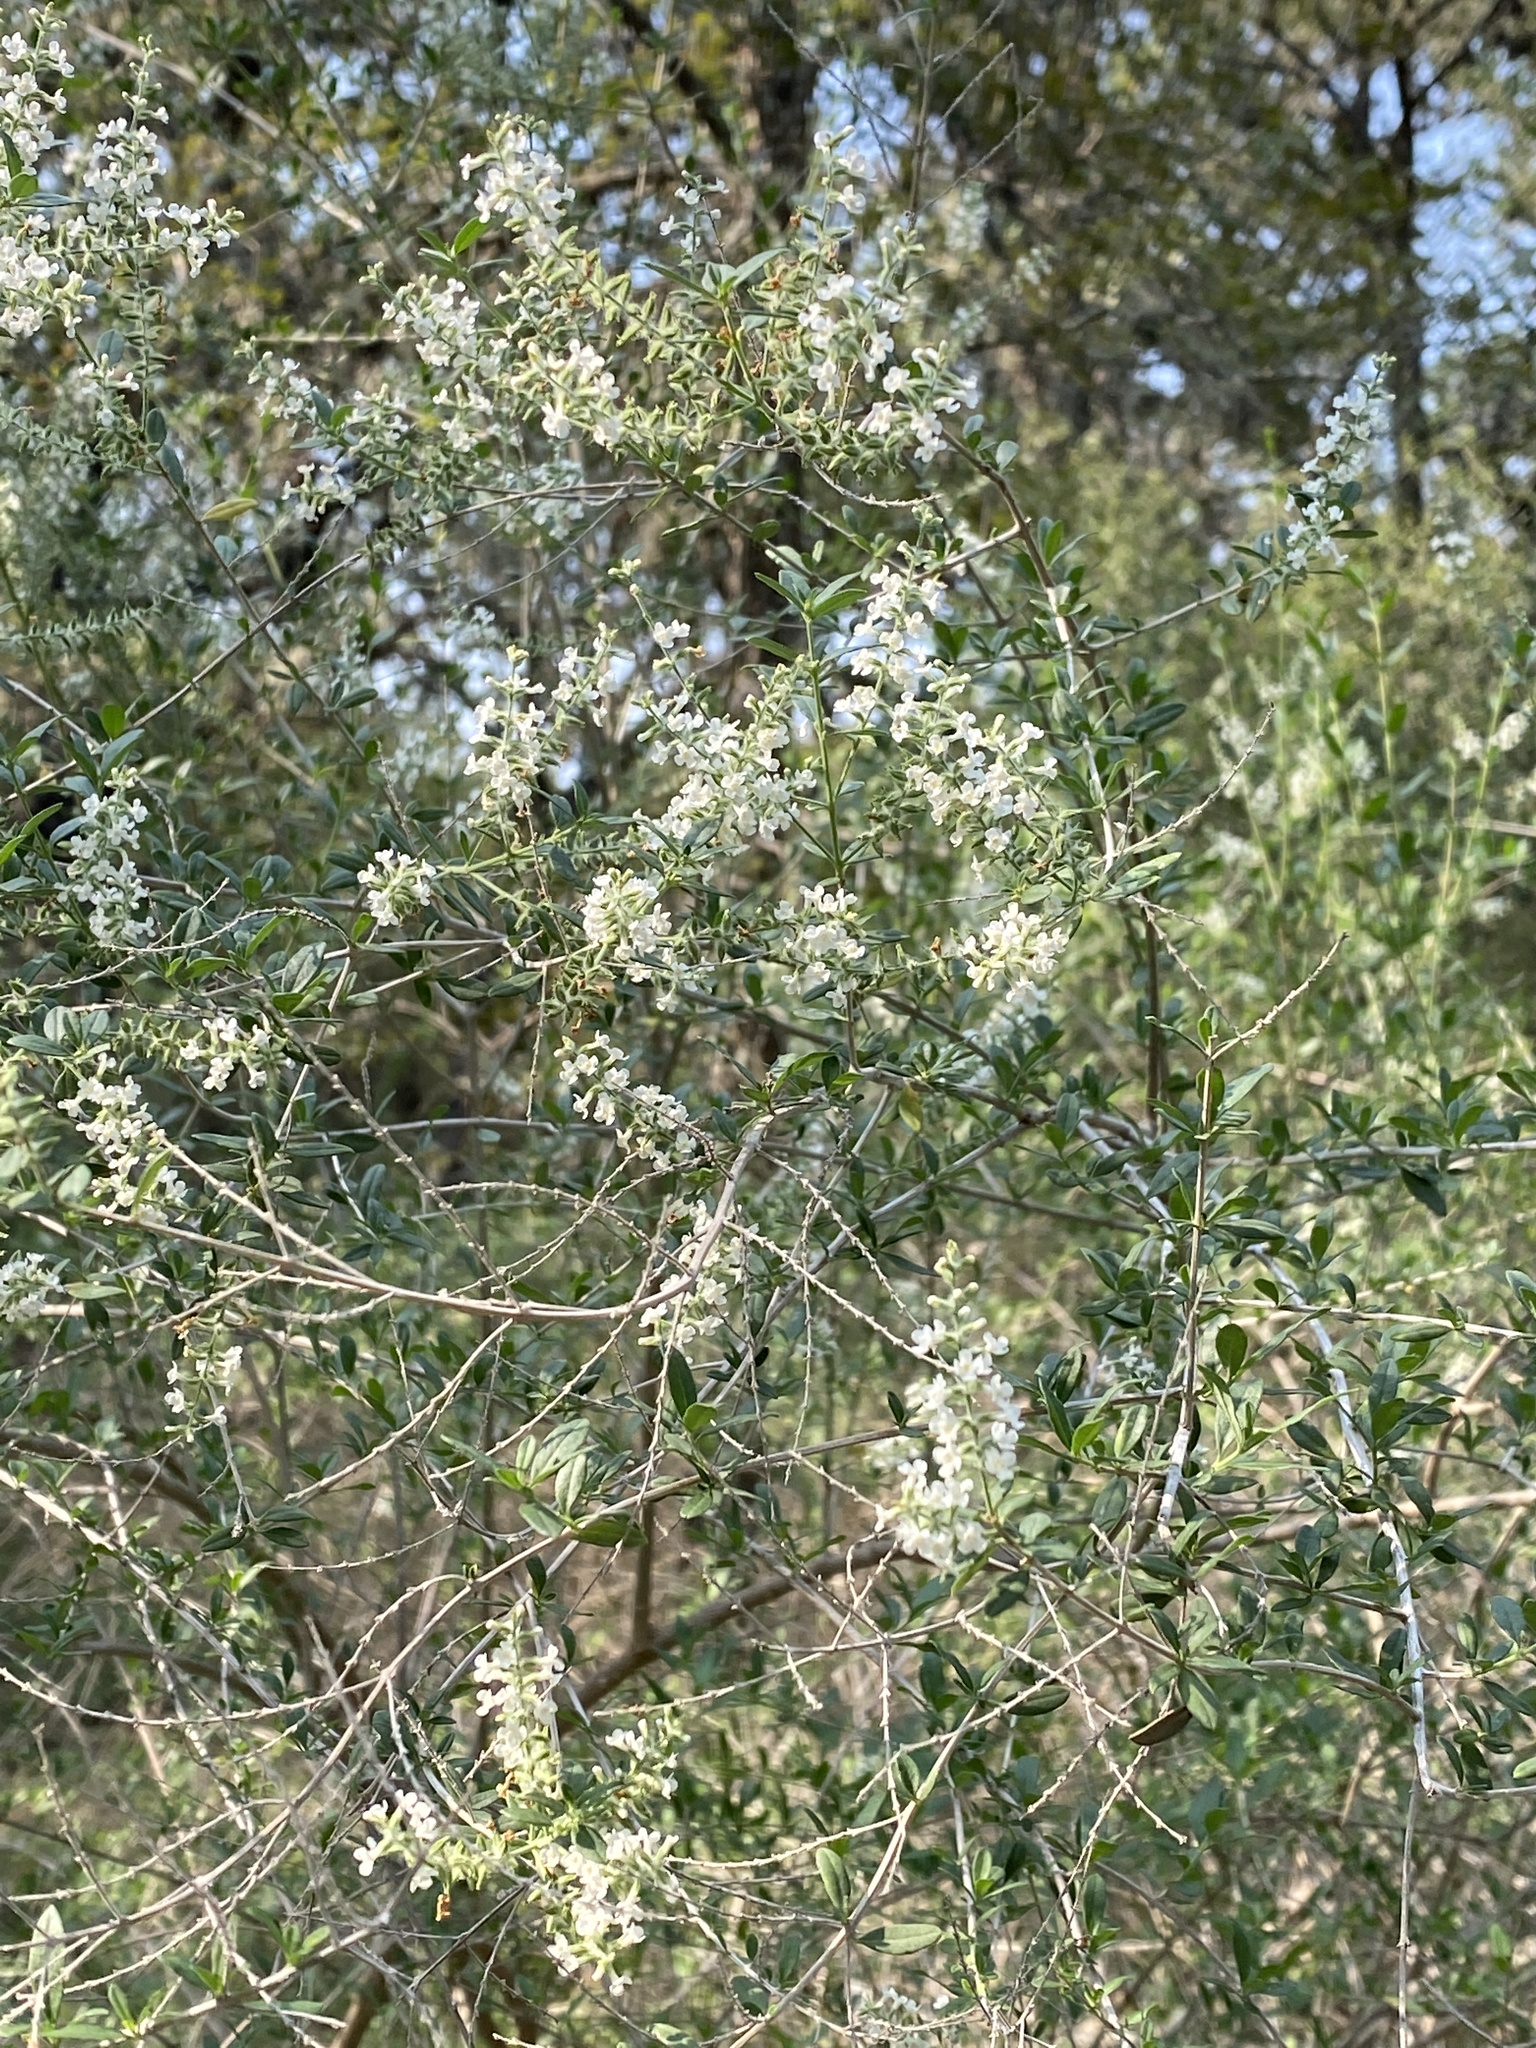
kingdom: Plantae
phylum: Tracheophyta
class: Magnoliopsida
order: Lamiales
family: Verbenaceae
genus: Aloysia
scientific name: Aloysia gratissima
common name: Common bee-brush
